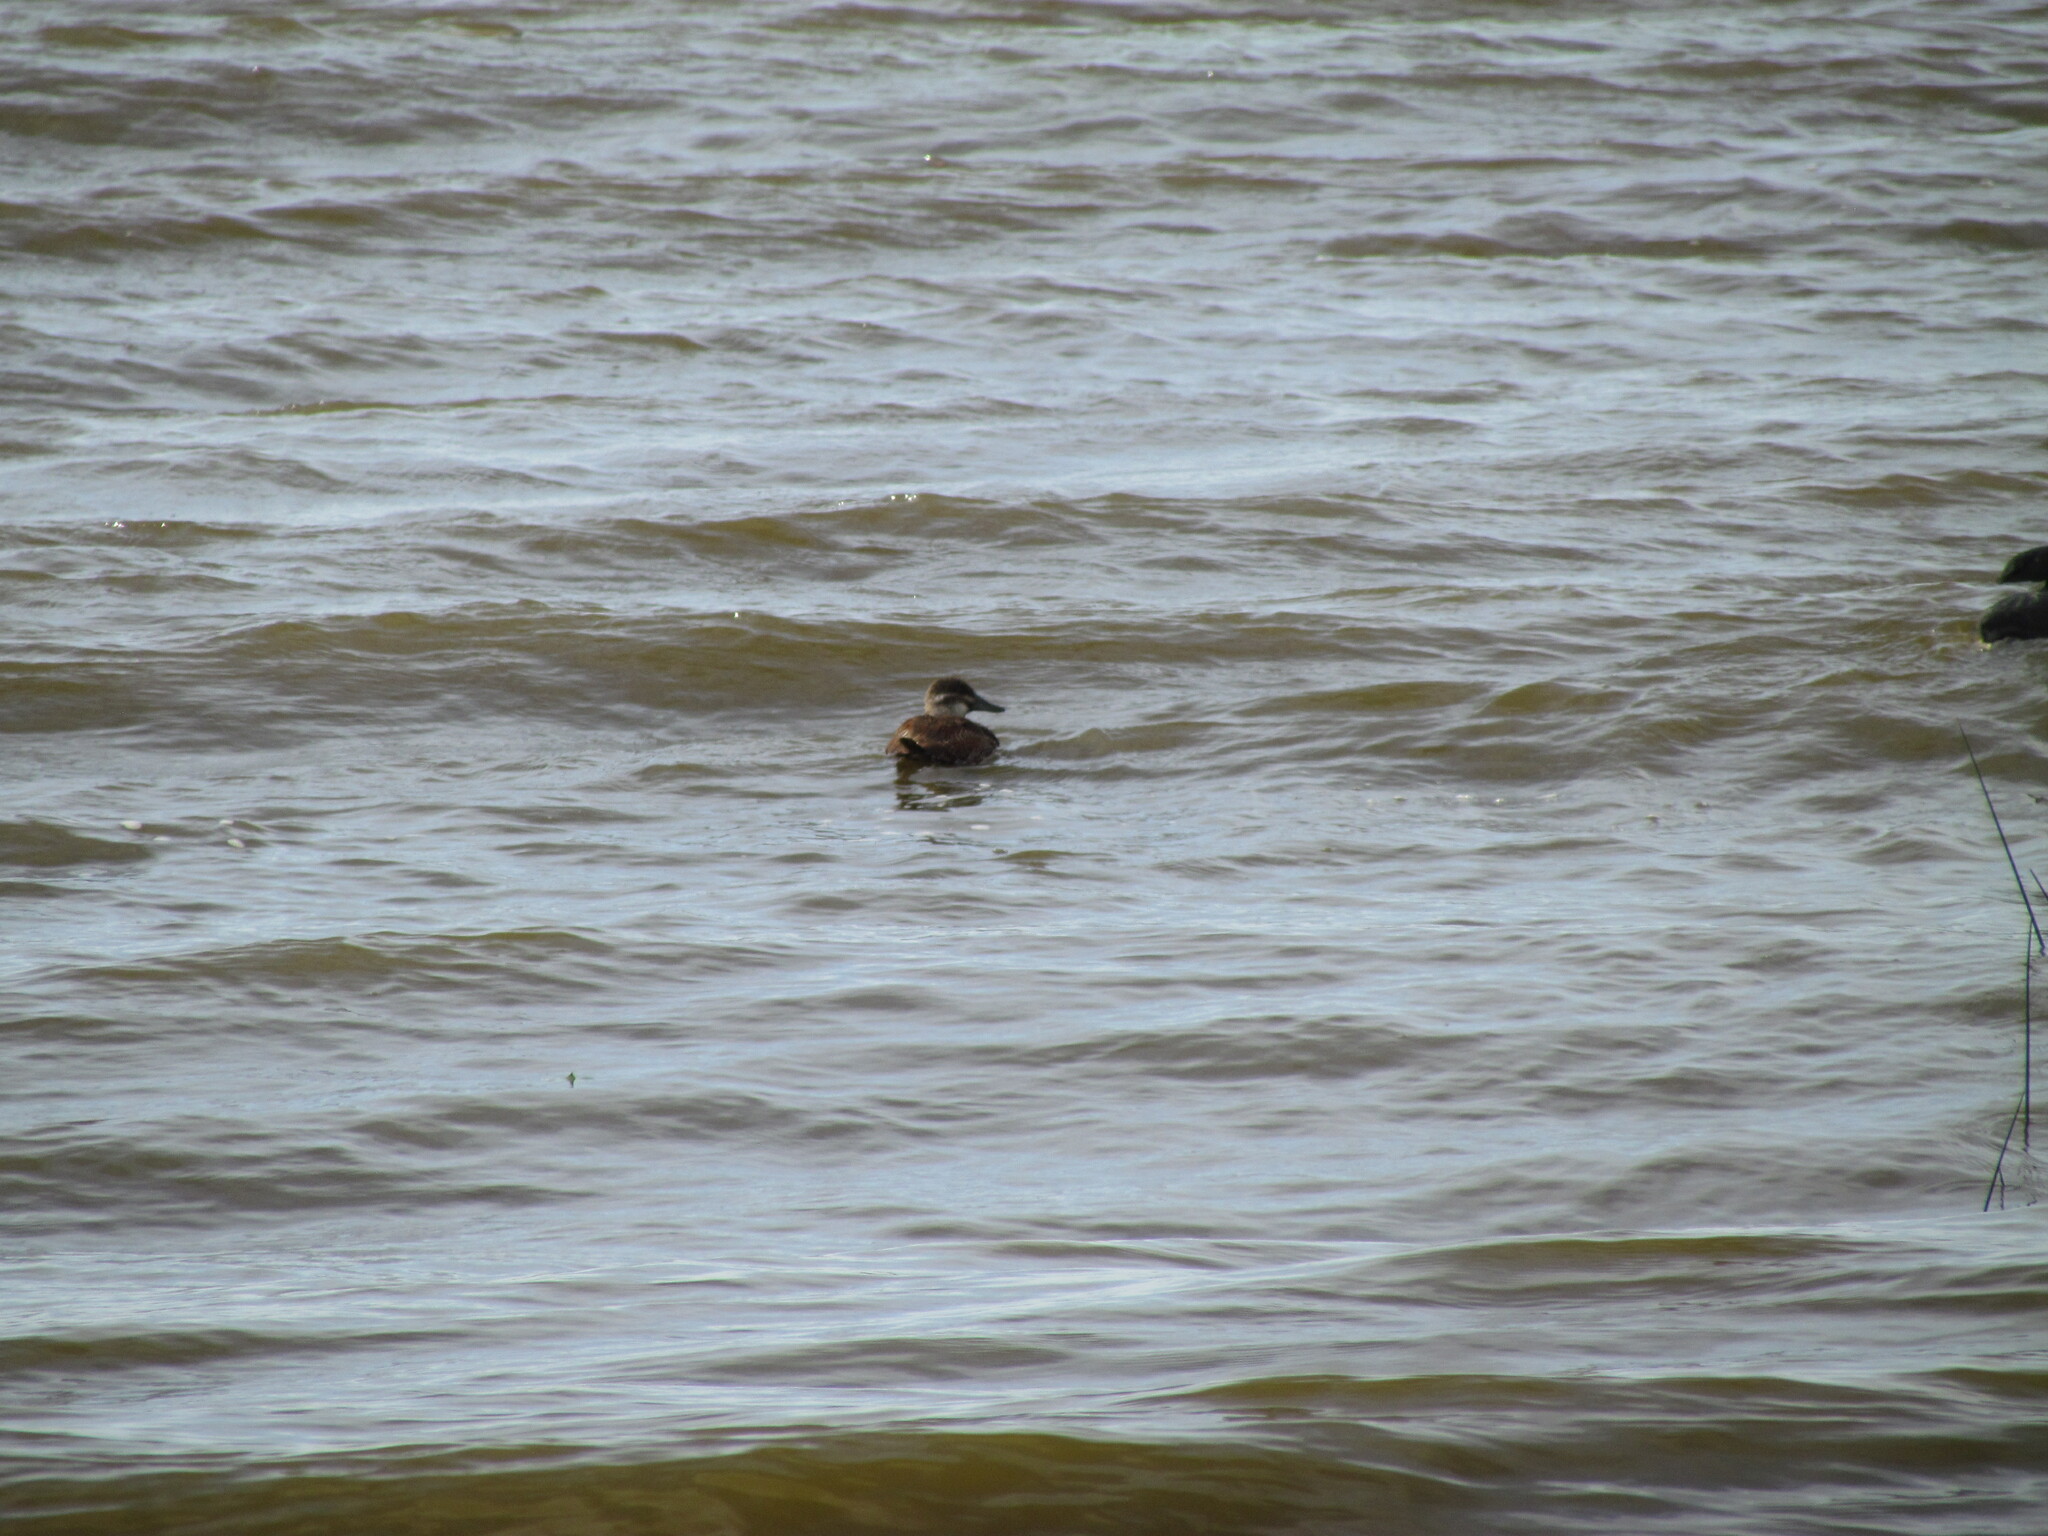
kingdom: Animalia
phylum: Chordata
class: Aves
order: Anseriformes
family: Anatidae
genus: Oxyura
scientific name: Oxyura vittata
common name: Lake duck
